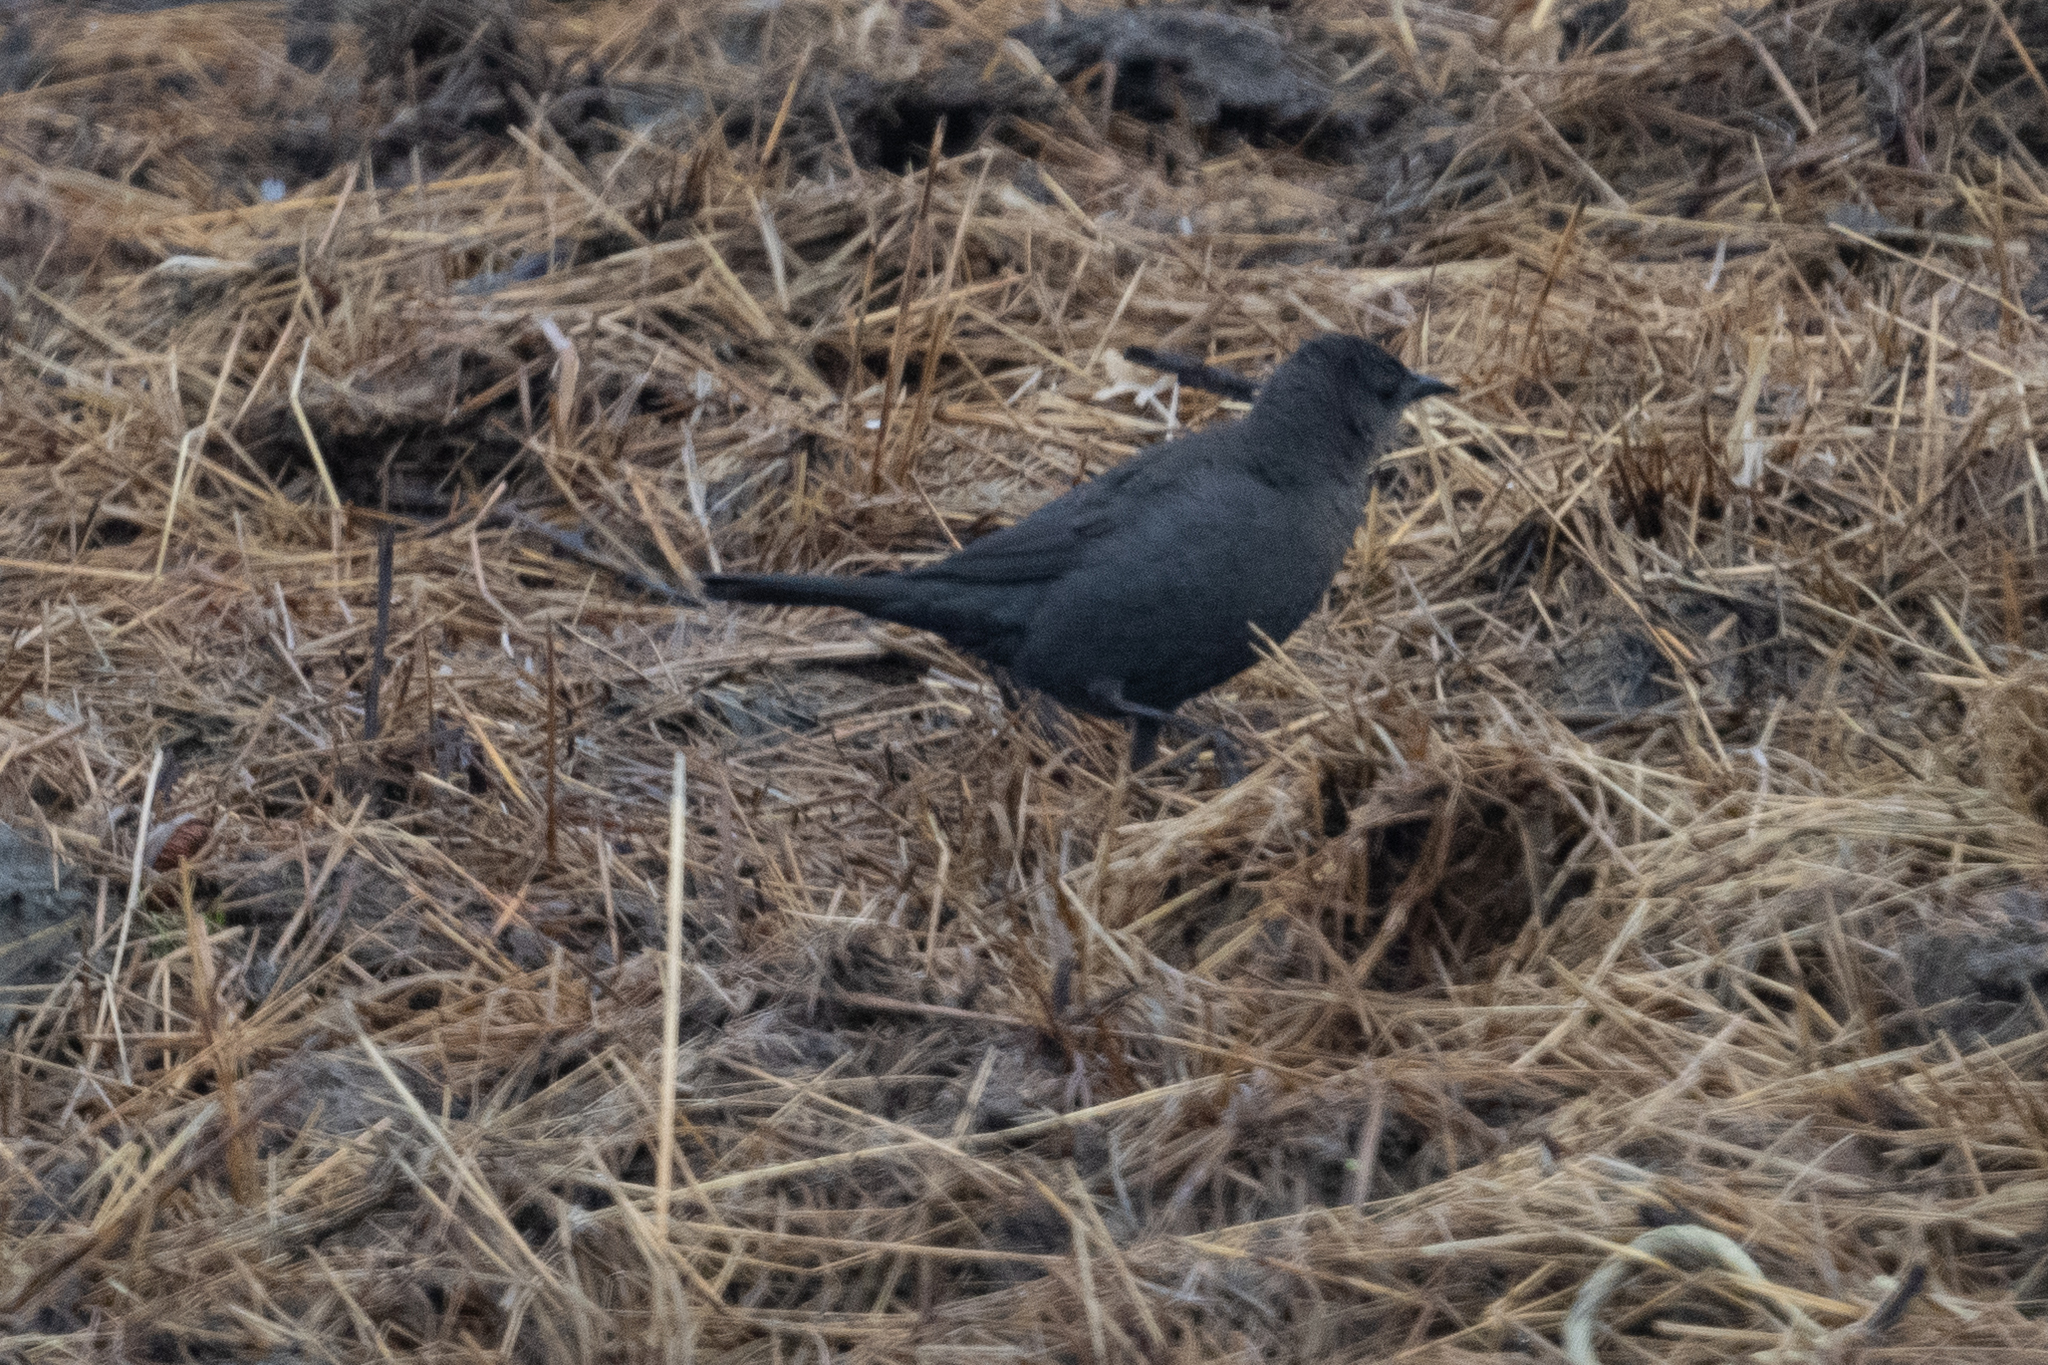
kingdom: Animalia
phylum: Chordata
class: Aves
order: Passeriformes
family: Icteridae
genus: Euphagus
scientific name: Euphagus cyanocephalus
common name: Brewer's blackbird
